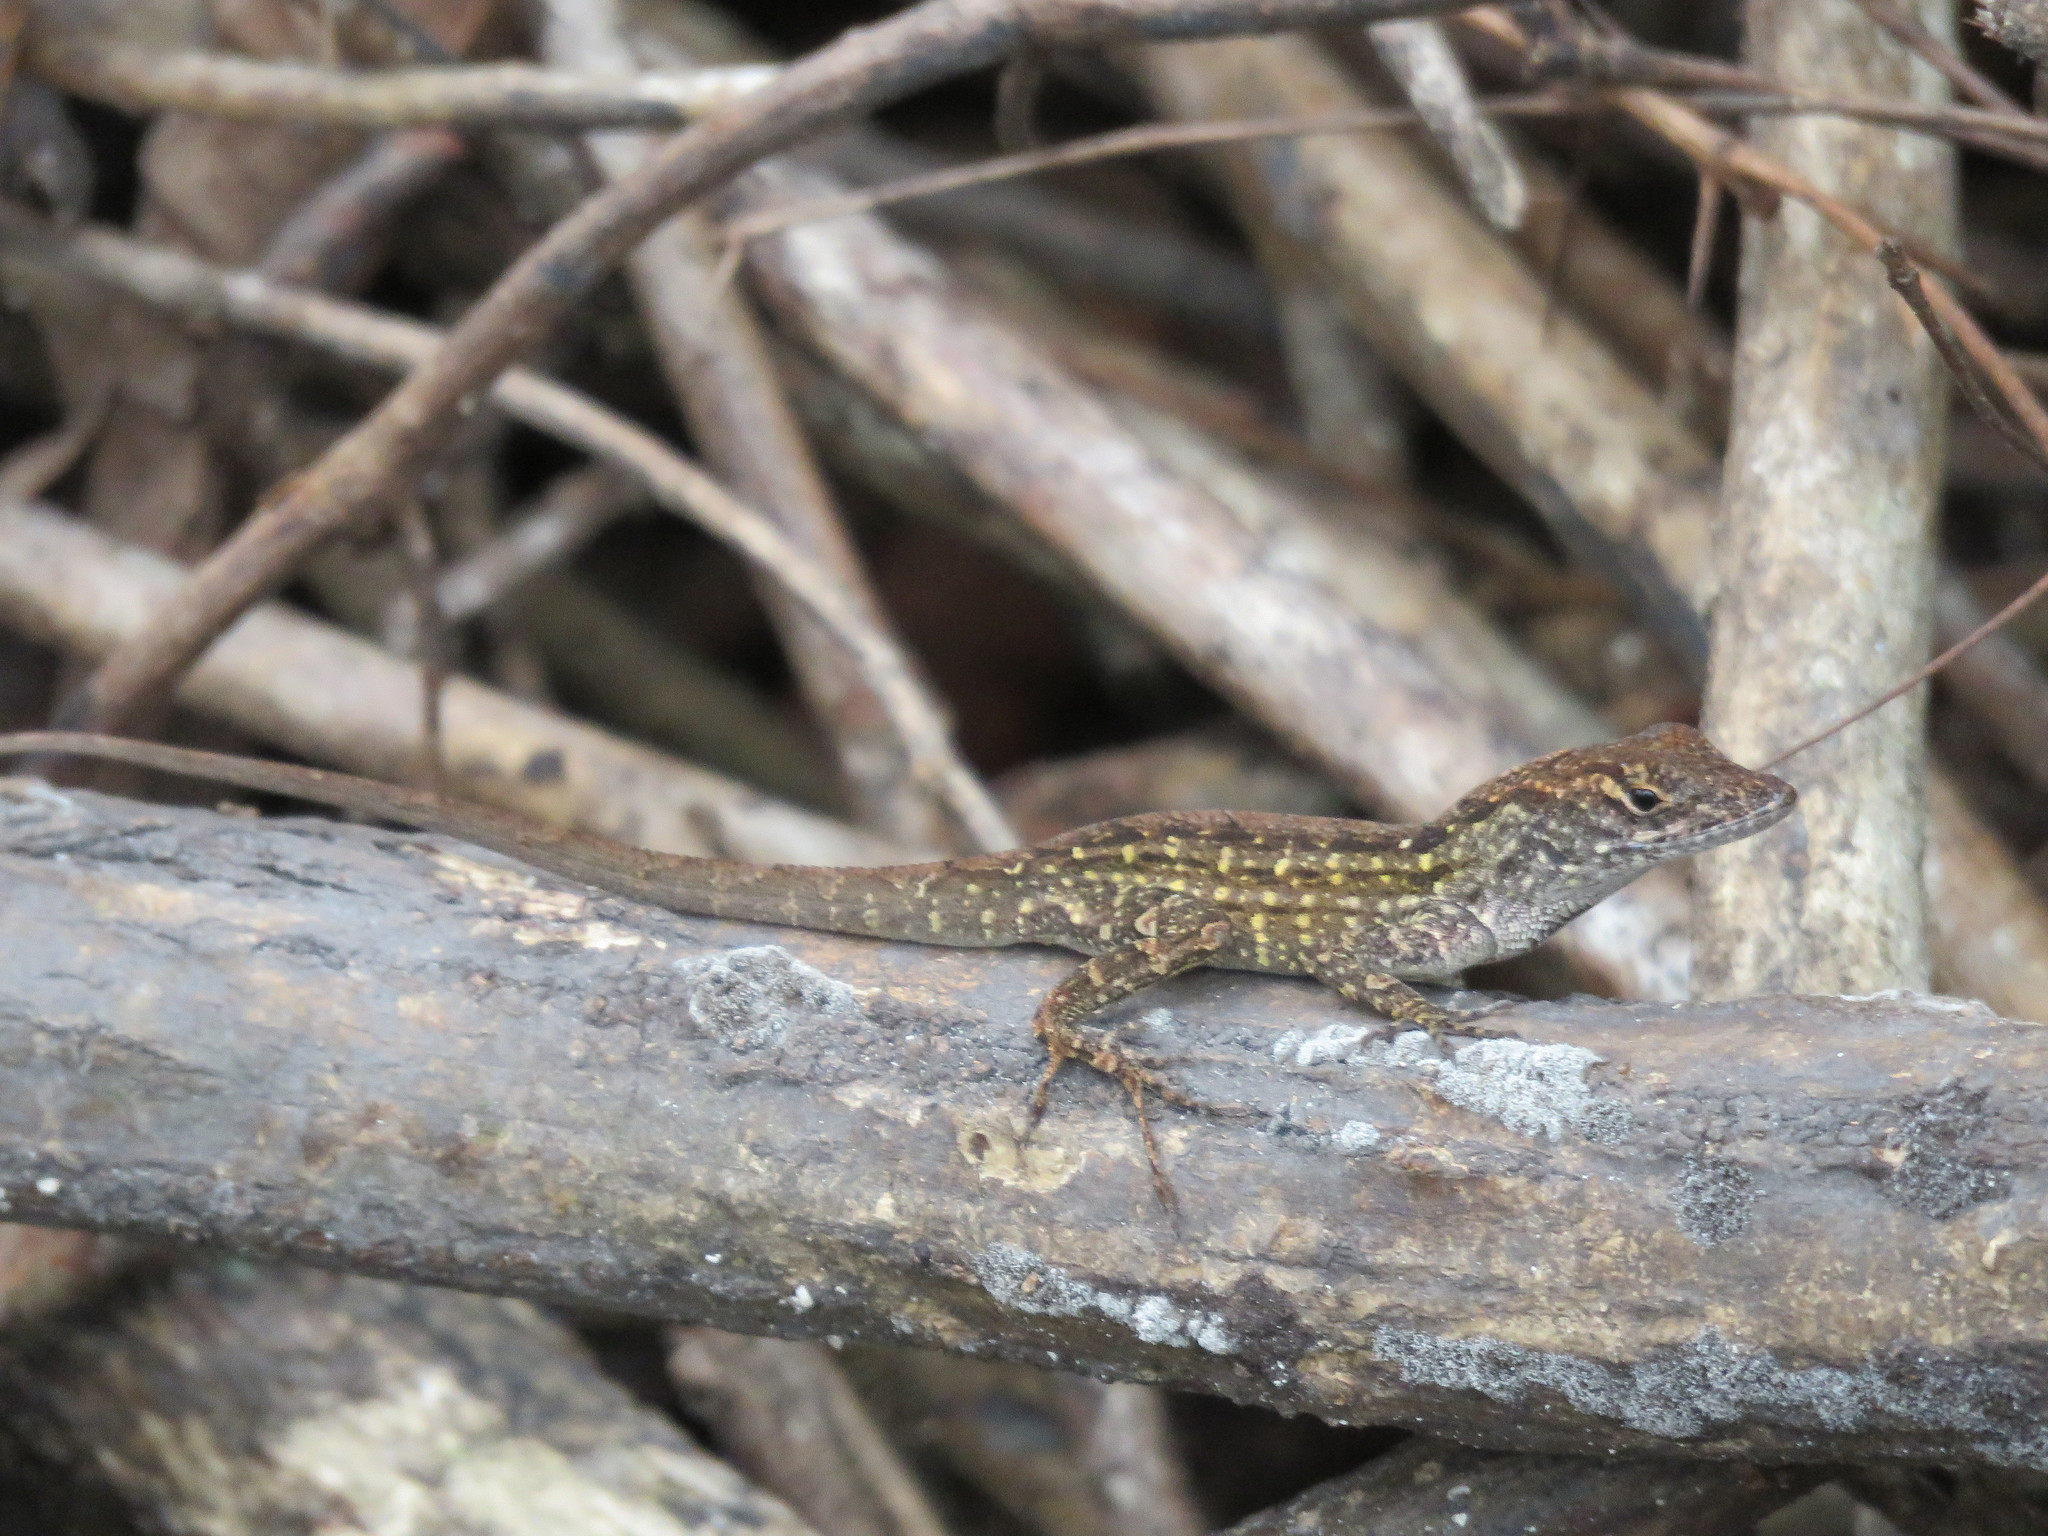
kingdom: Animalia
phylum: Chordata
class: Squamata
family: Dactyloidae
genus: Anolis
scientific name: Anolis sagrei
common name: Brown anole
